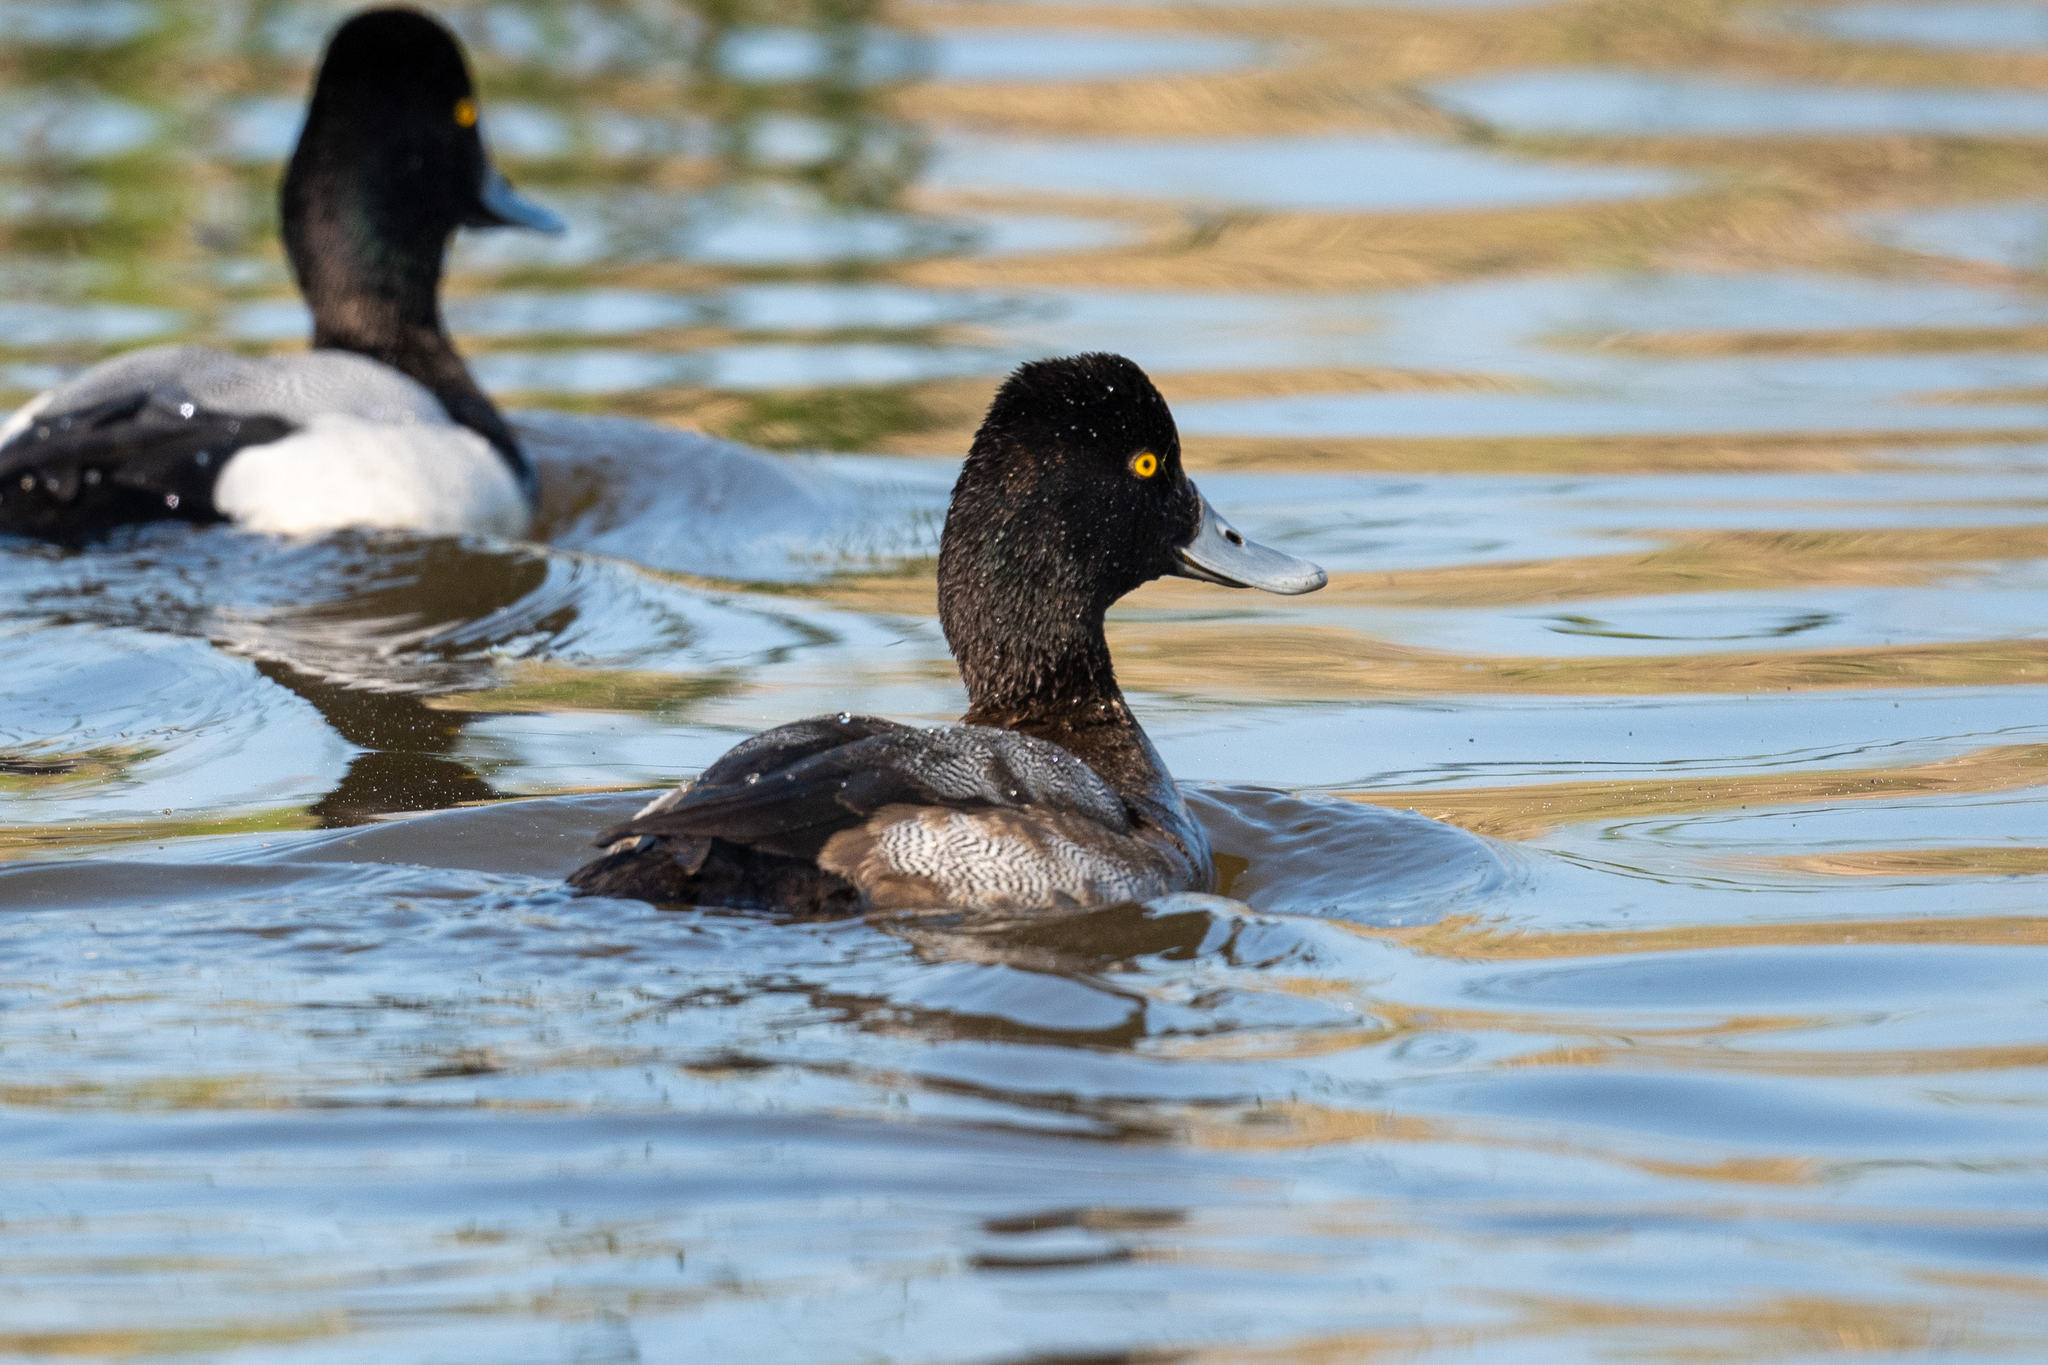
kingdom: Animalia
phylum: Chordata
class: Aves
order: Anseriformes
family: Anatidae
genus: Aythya
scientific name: Aythya affinis
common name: Lesser scaup
